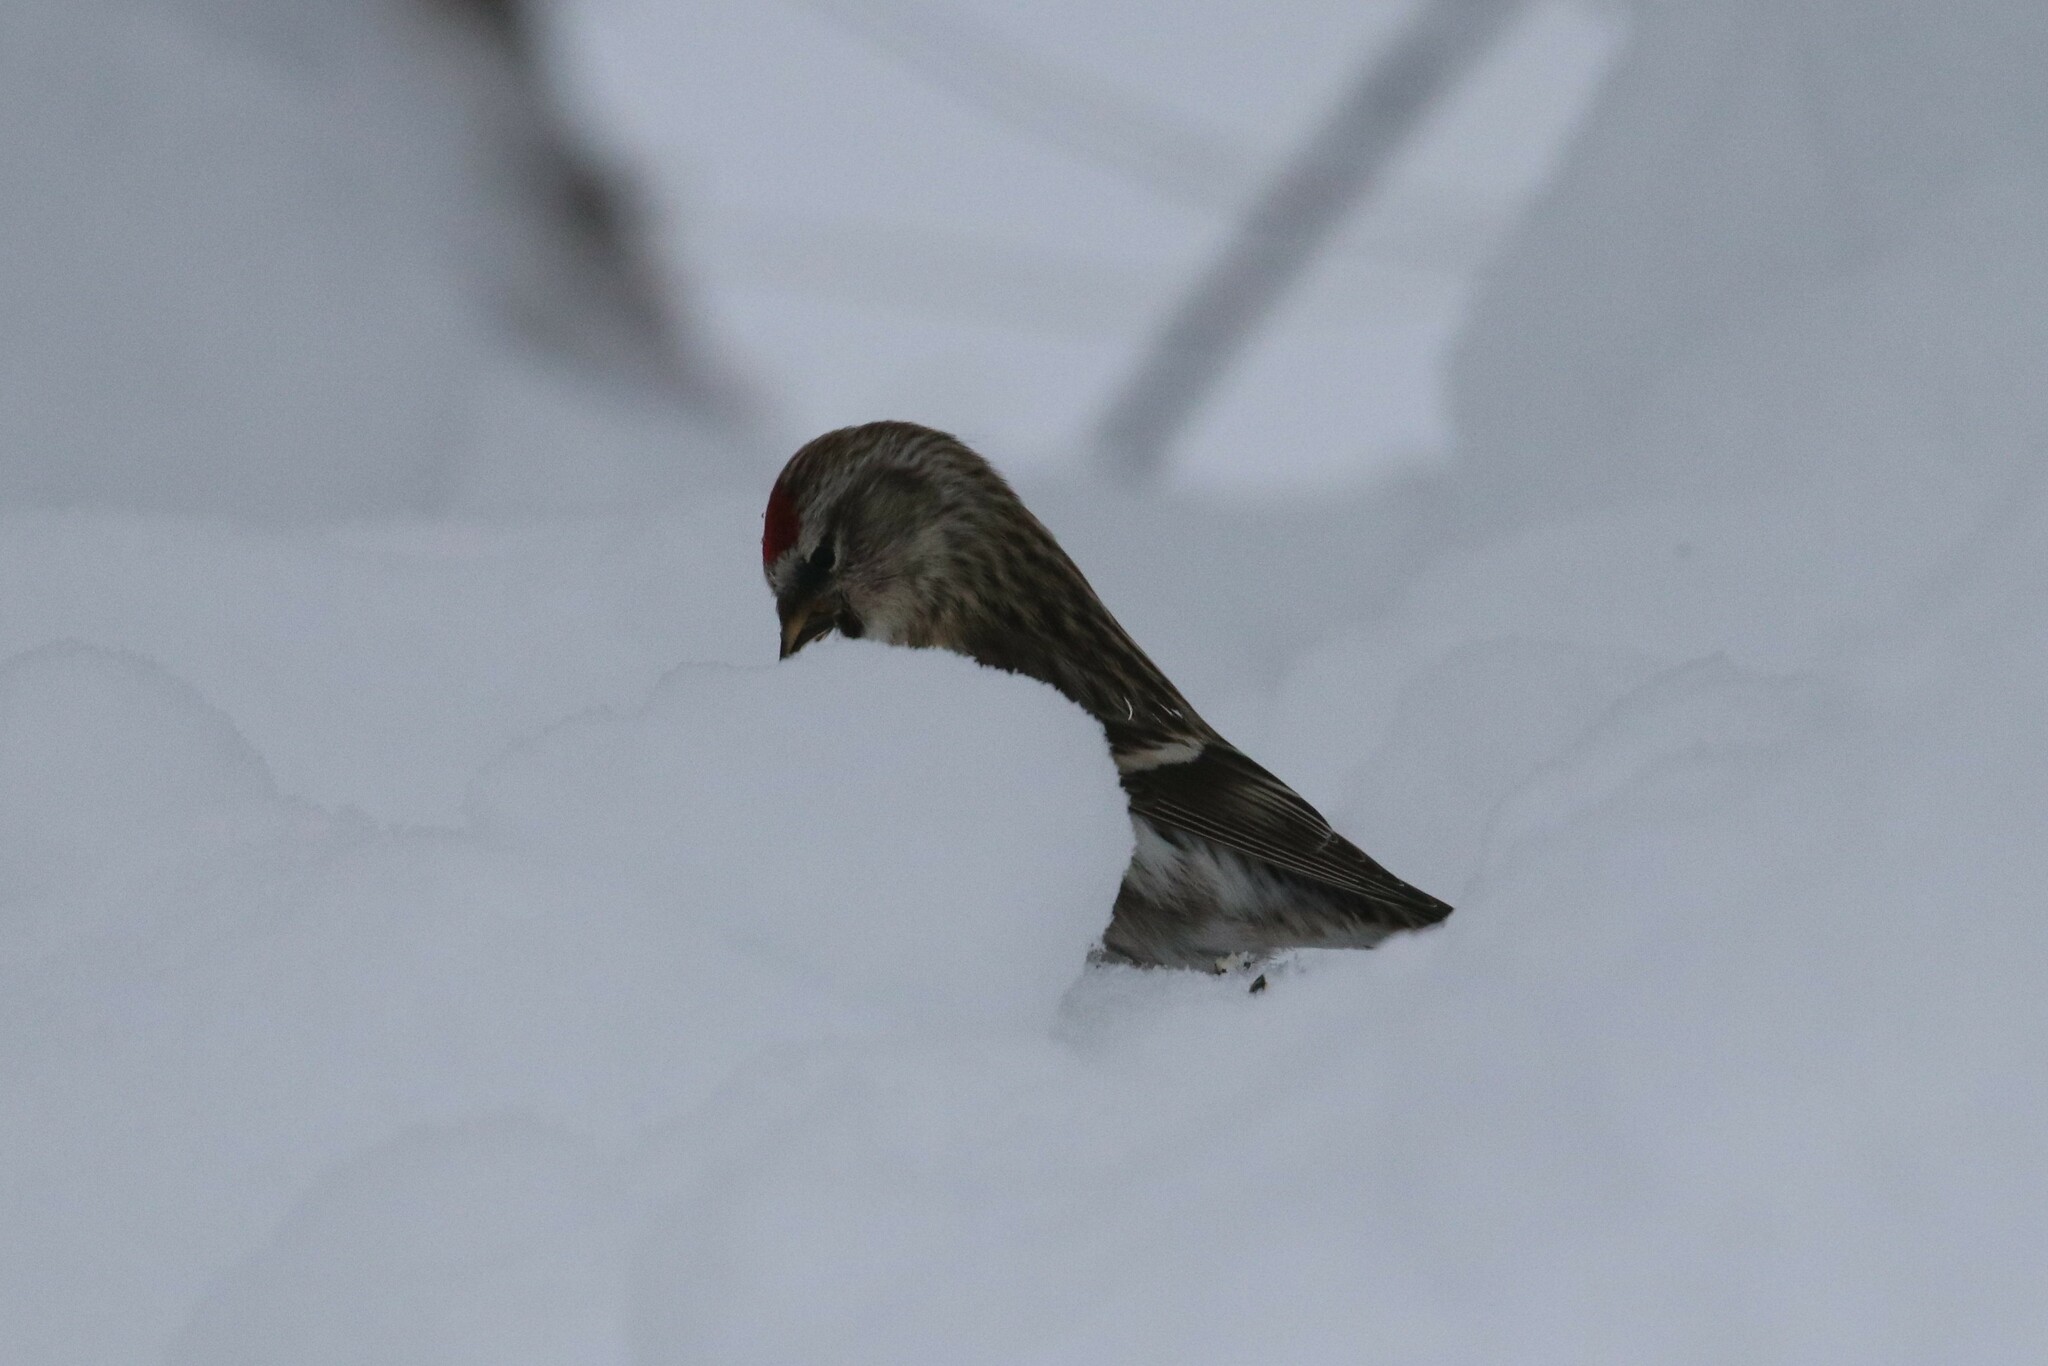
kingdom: Animalia
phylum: Chordata
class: Aves
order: Passeriformes
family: Fringillidae
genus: Acanthis
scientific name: Acanthis flammea
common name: Common redpoll
